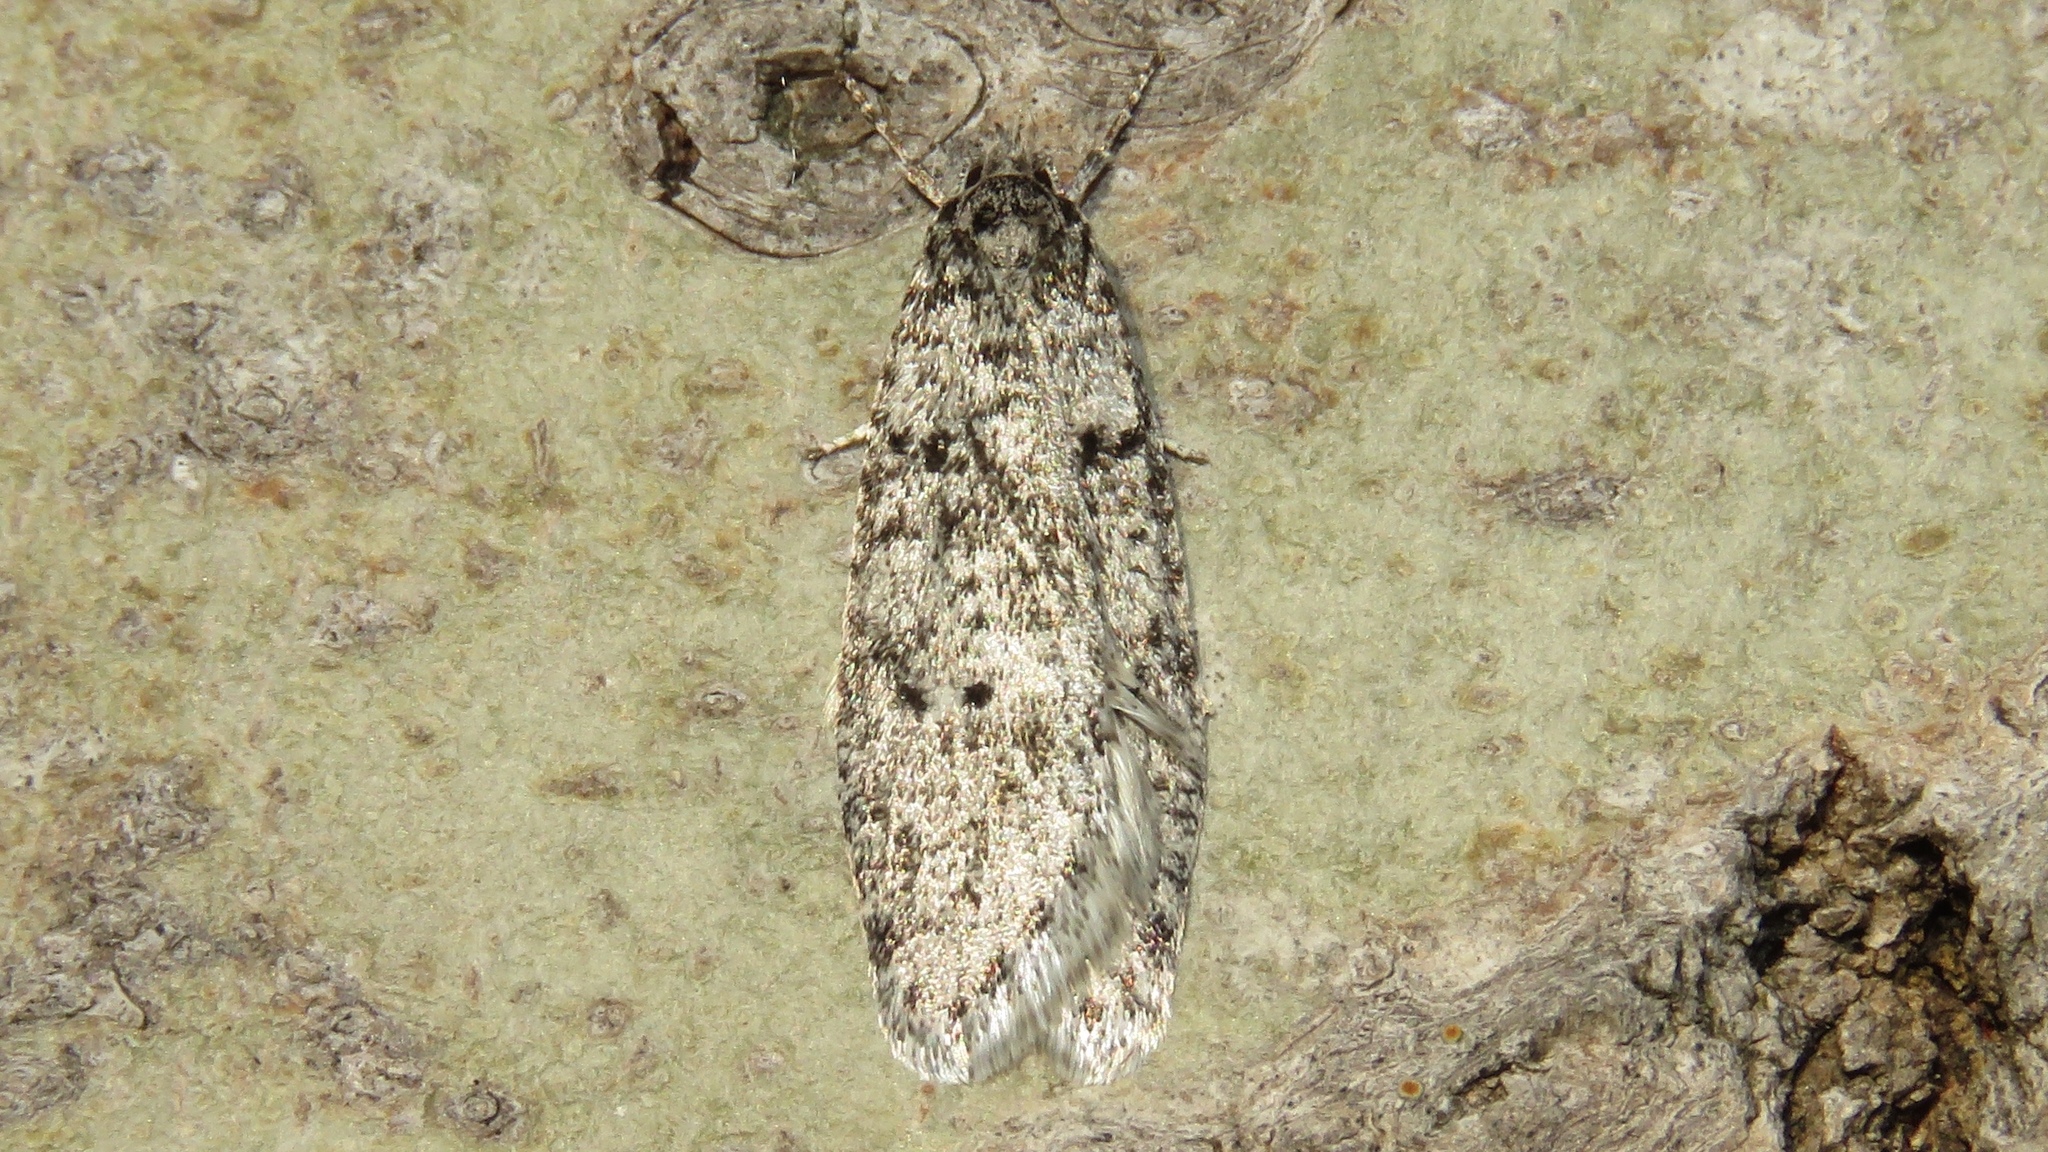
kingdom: Animalia
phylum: Arthropoda
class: Insecta
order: Lepidoptera
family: Depressariidae
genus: Semioscopis
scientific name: Semioscopis inornata
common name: Poplar micromoth
